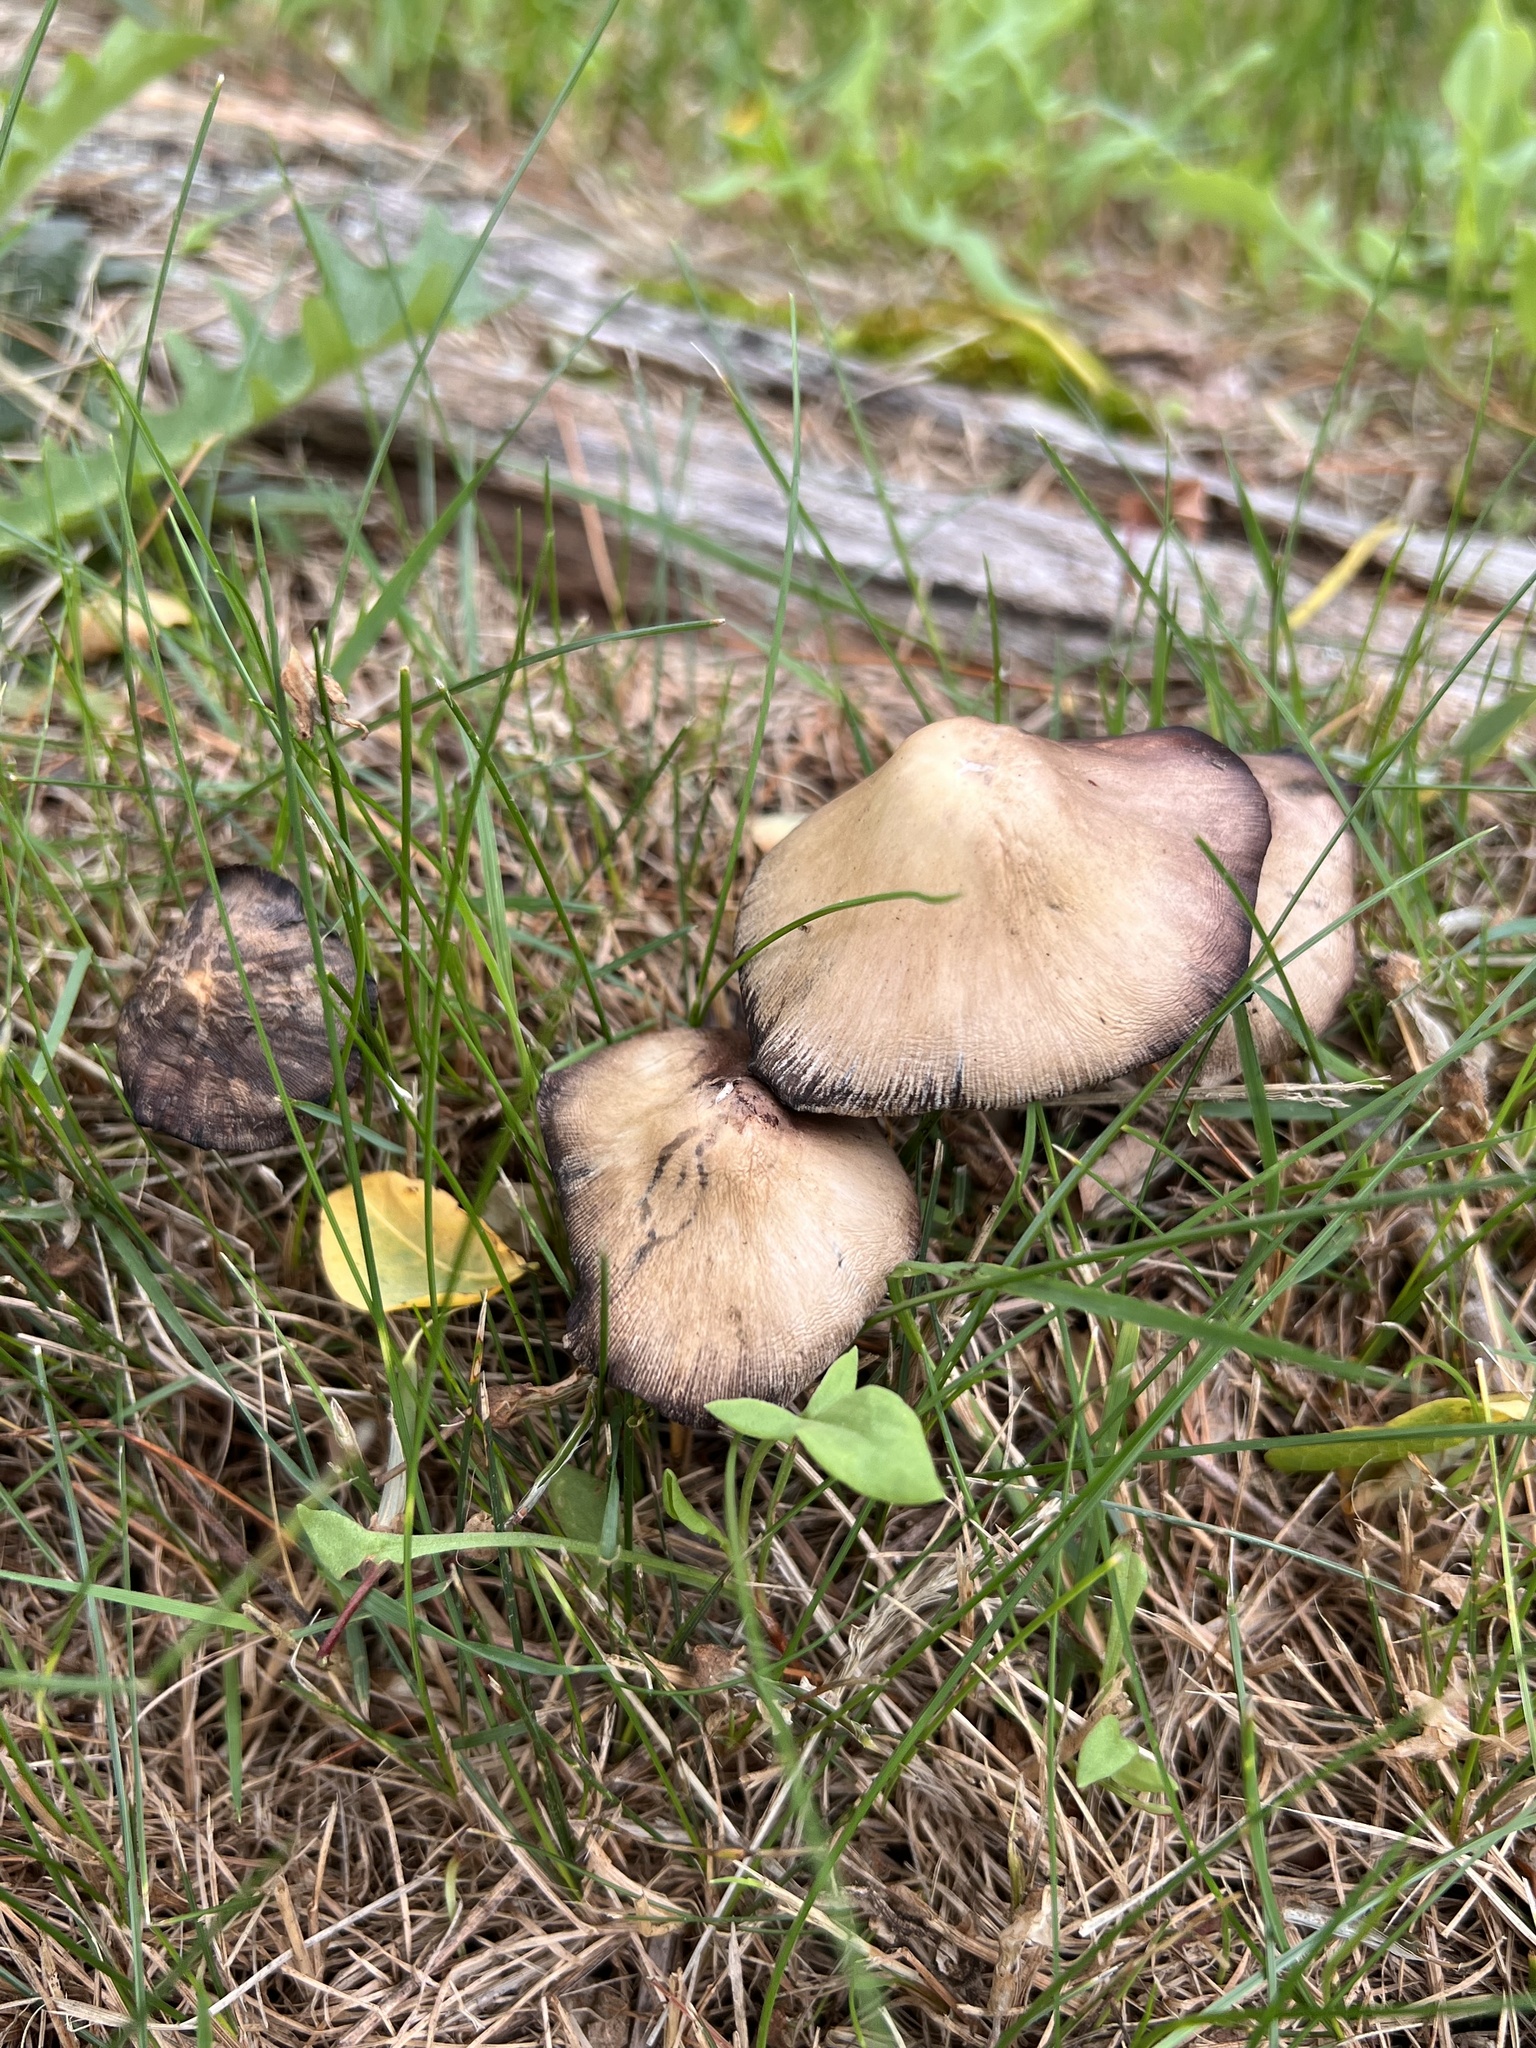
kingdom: Fungi
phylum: Basidiomycota
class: Agaricomycetes
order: Agaricales
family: Psathyrellaceae
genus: Candolleomyces
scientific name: Candolleomyces candolleanus
